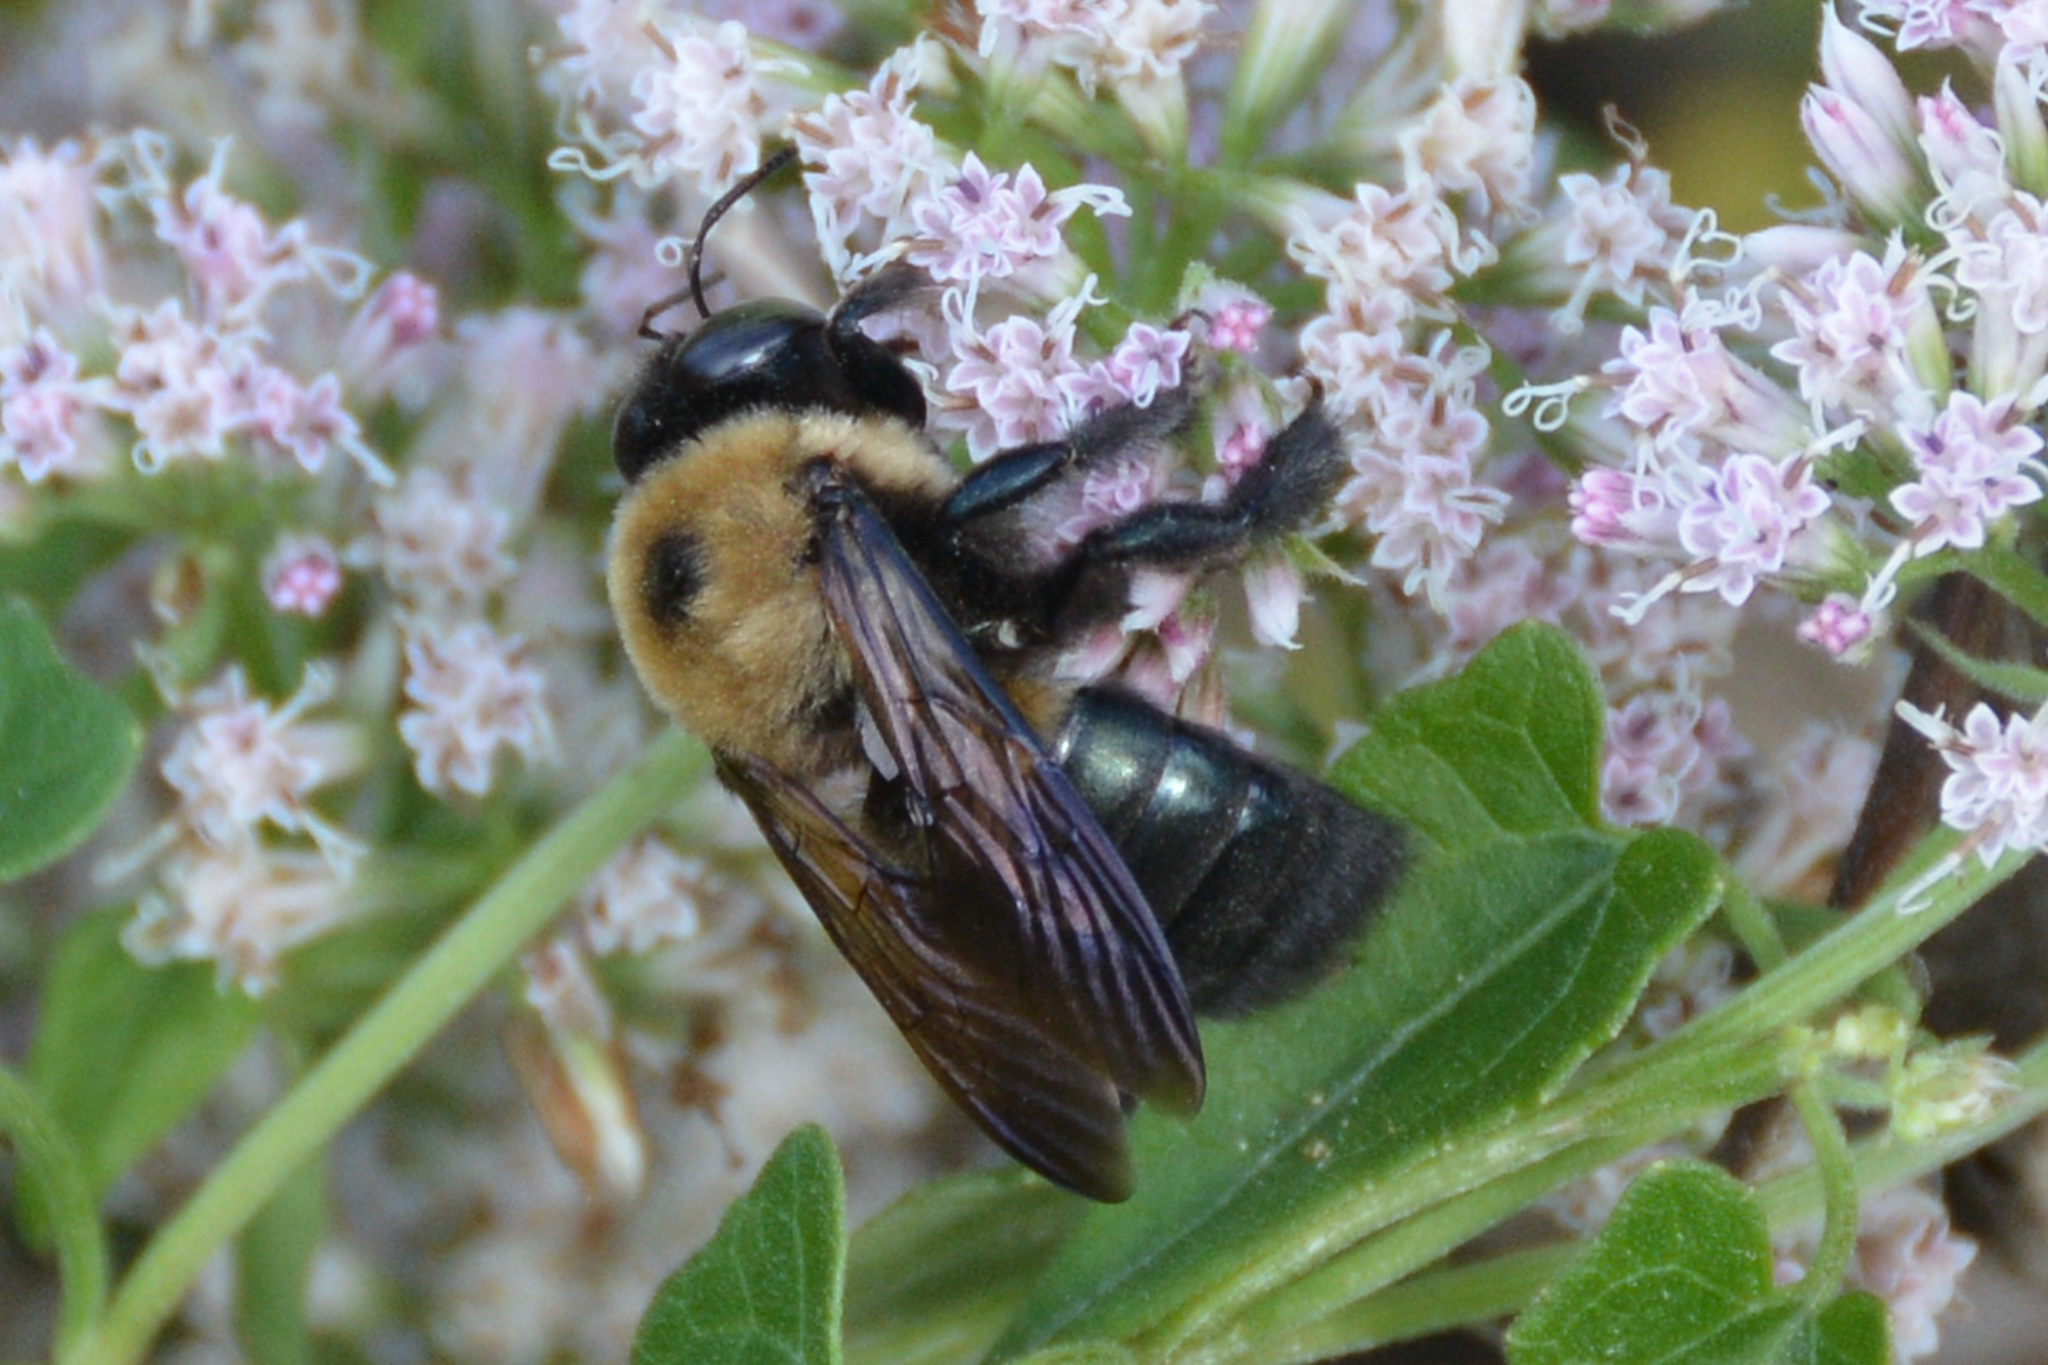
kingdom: Animalia
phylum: Arthropoda
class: Insecta
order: Hymenoptera
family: Apidae
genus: Xylocopa
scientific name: Xylocopa virginica
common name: Carpenter bee
